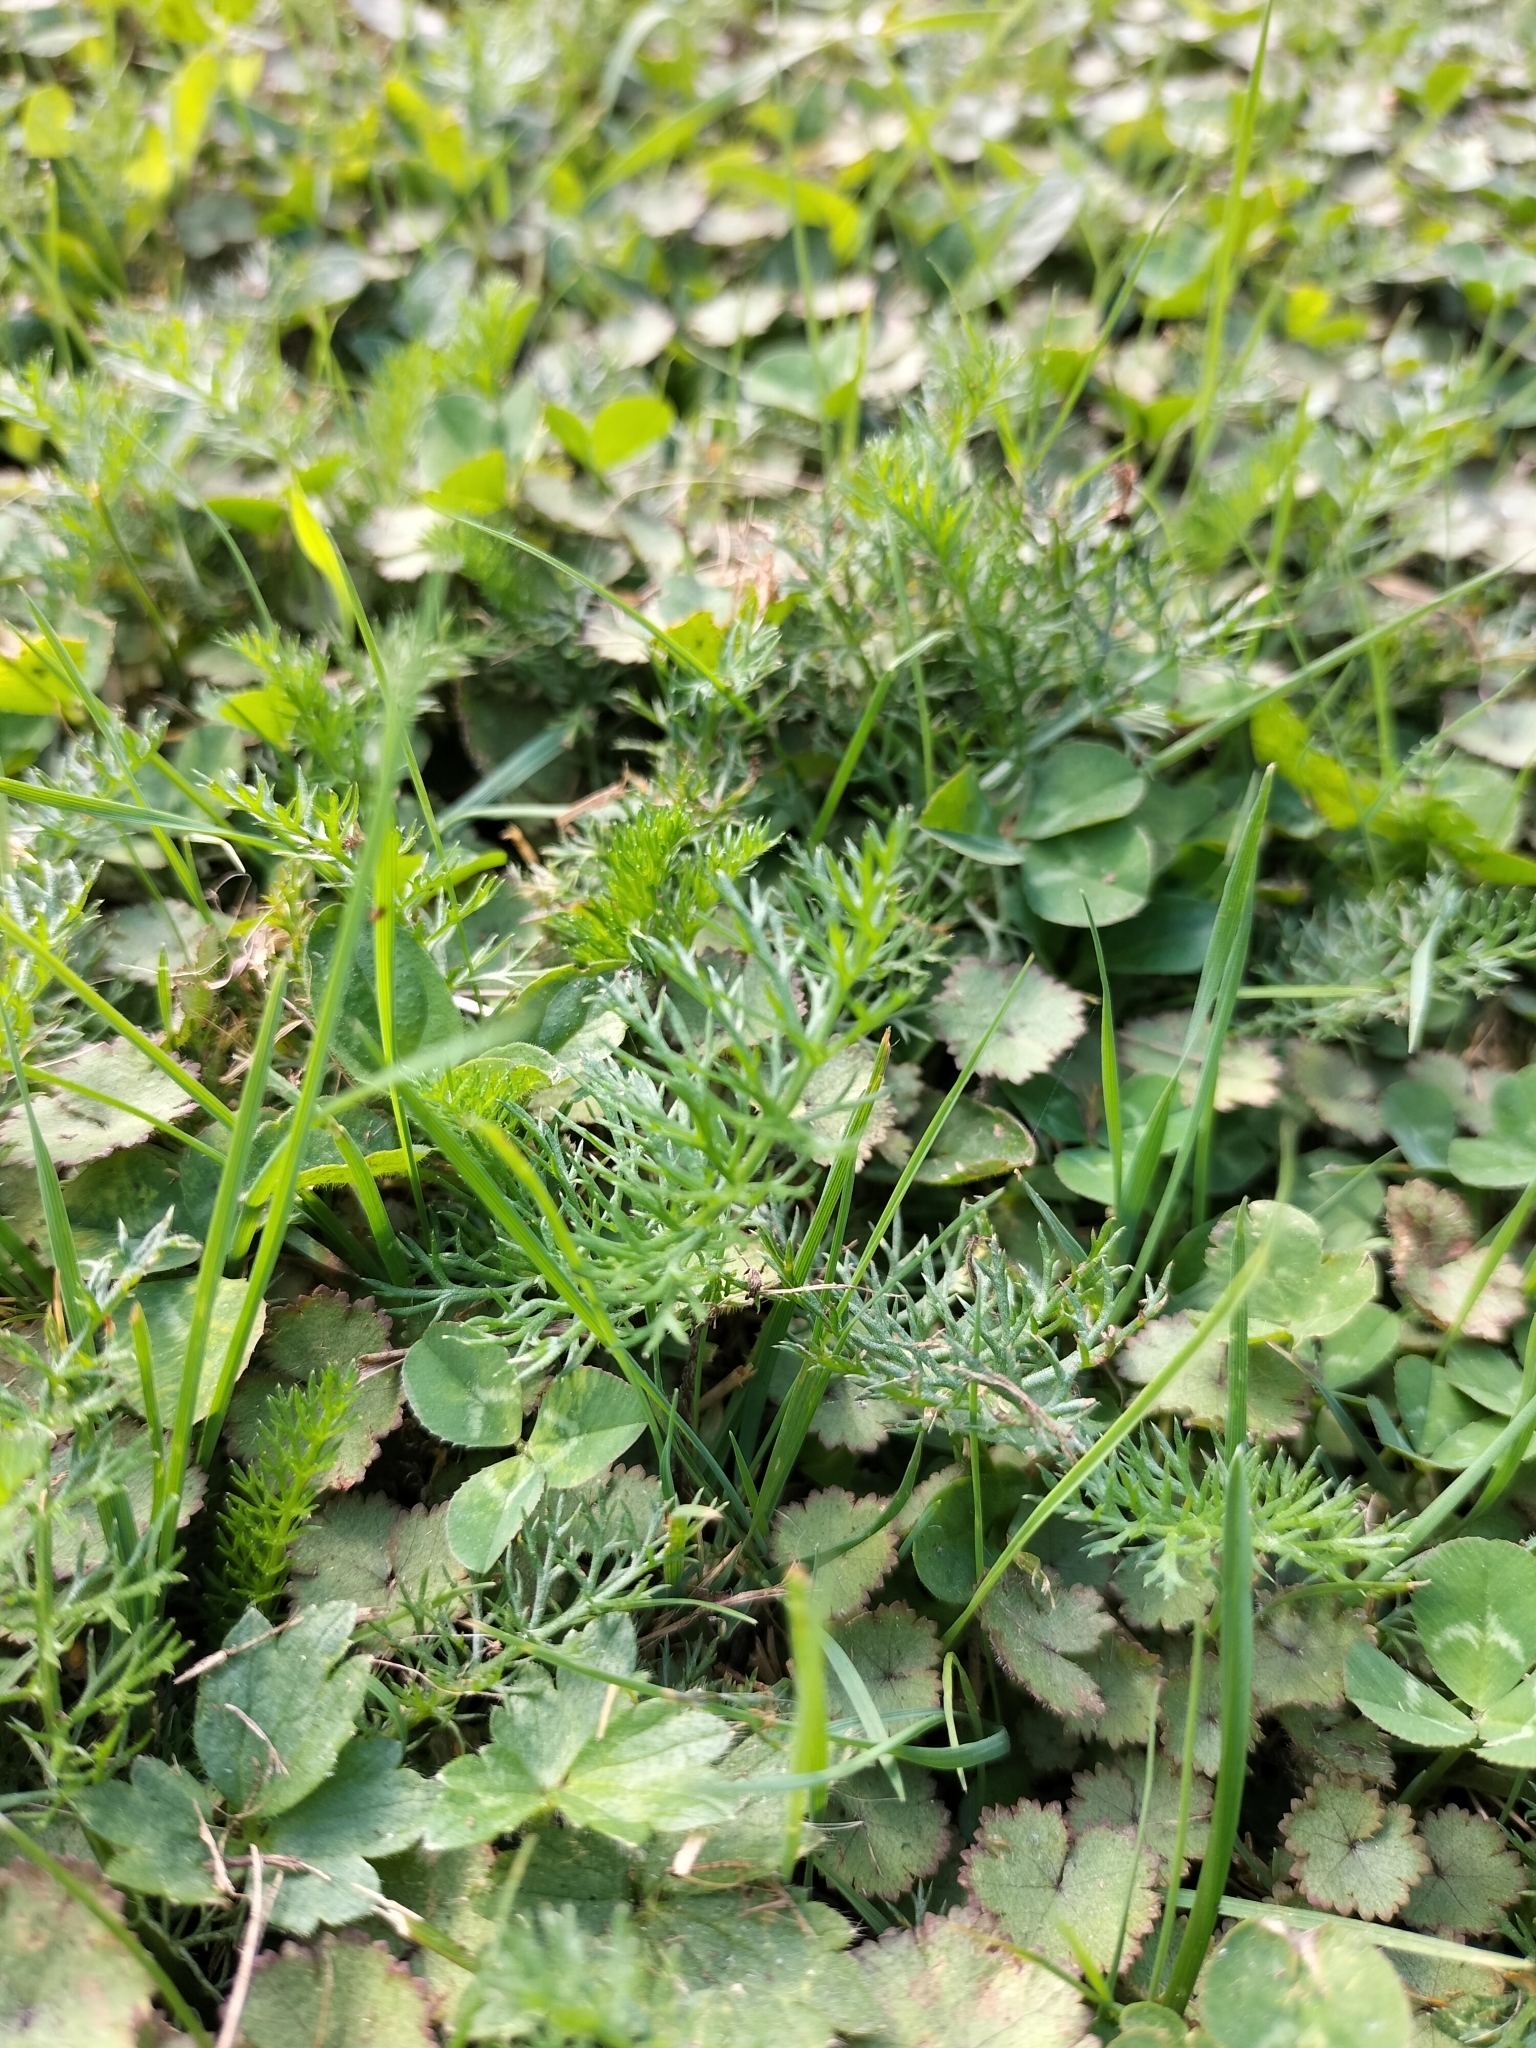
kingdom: Plantae
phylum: Tracheophyta
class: Magnoliopsida
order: Asterales
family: Asteraceae
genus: Achillea
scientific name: Achillea millefolium
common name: Yarrow
